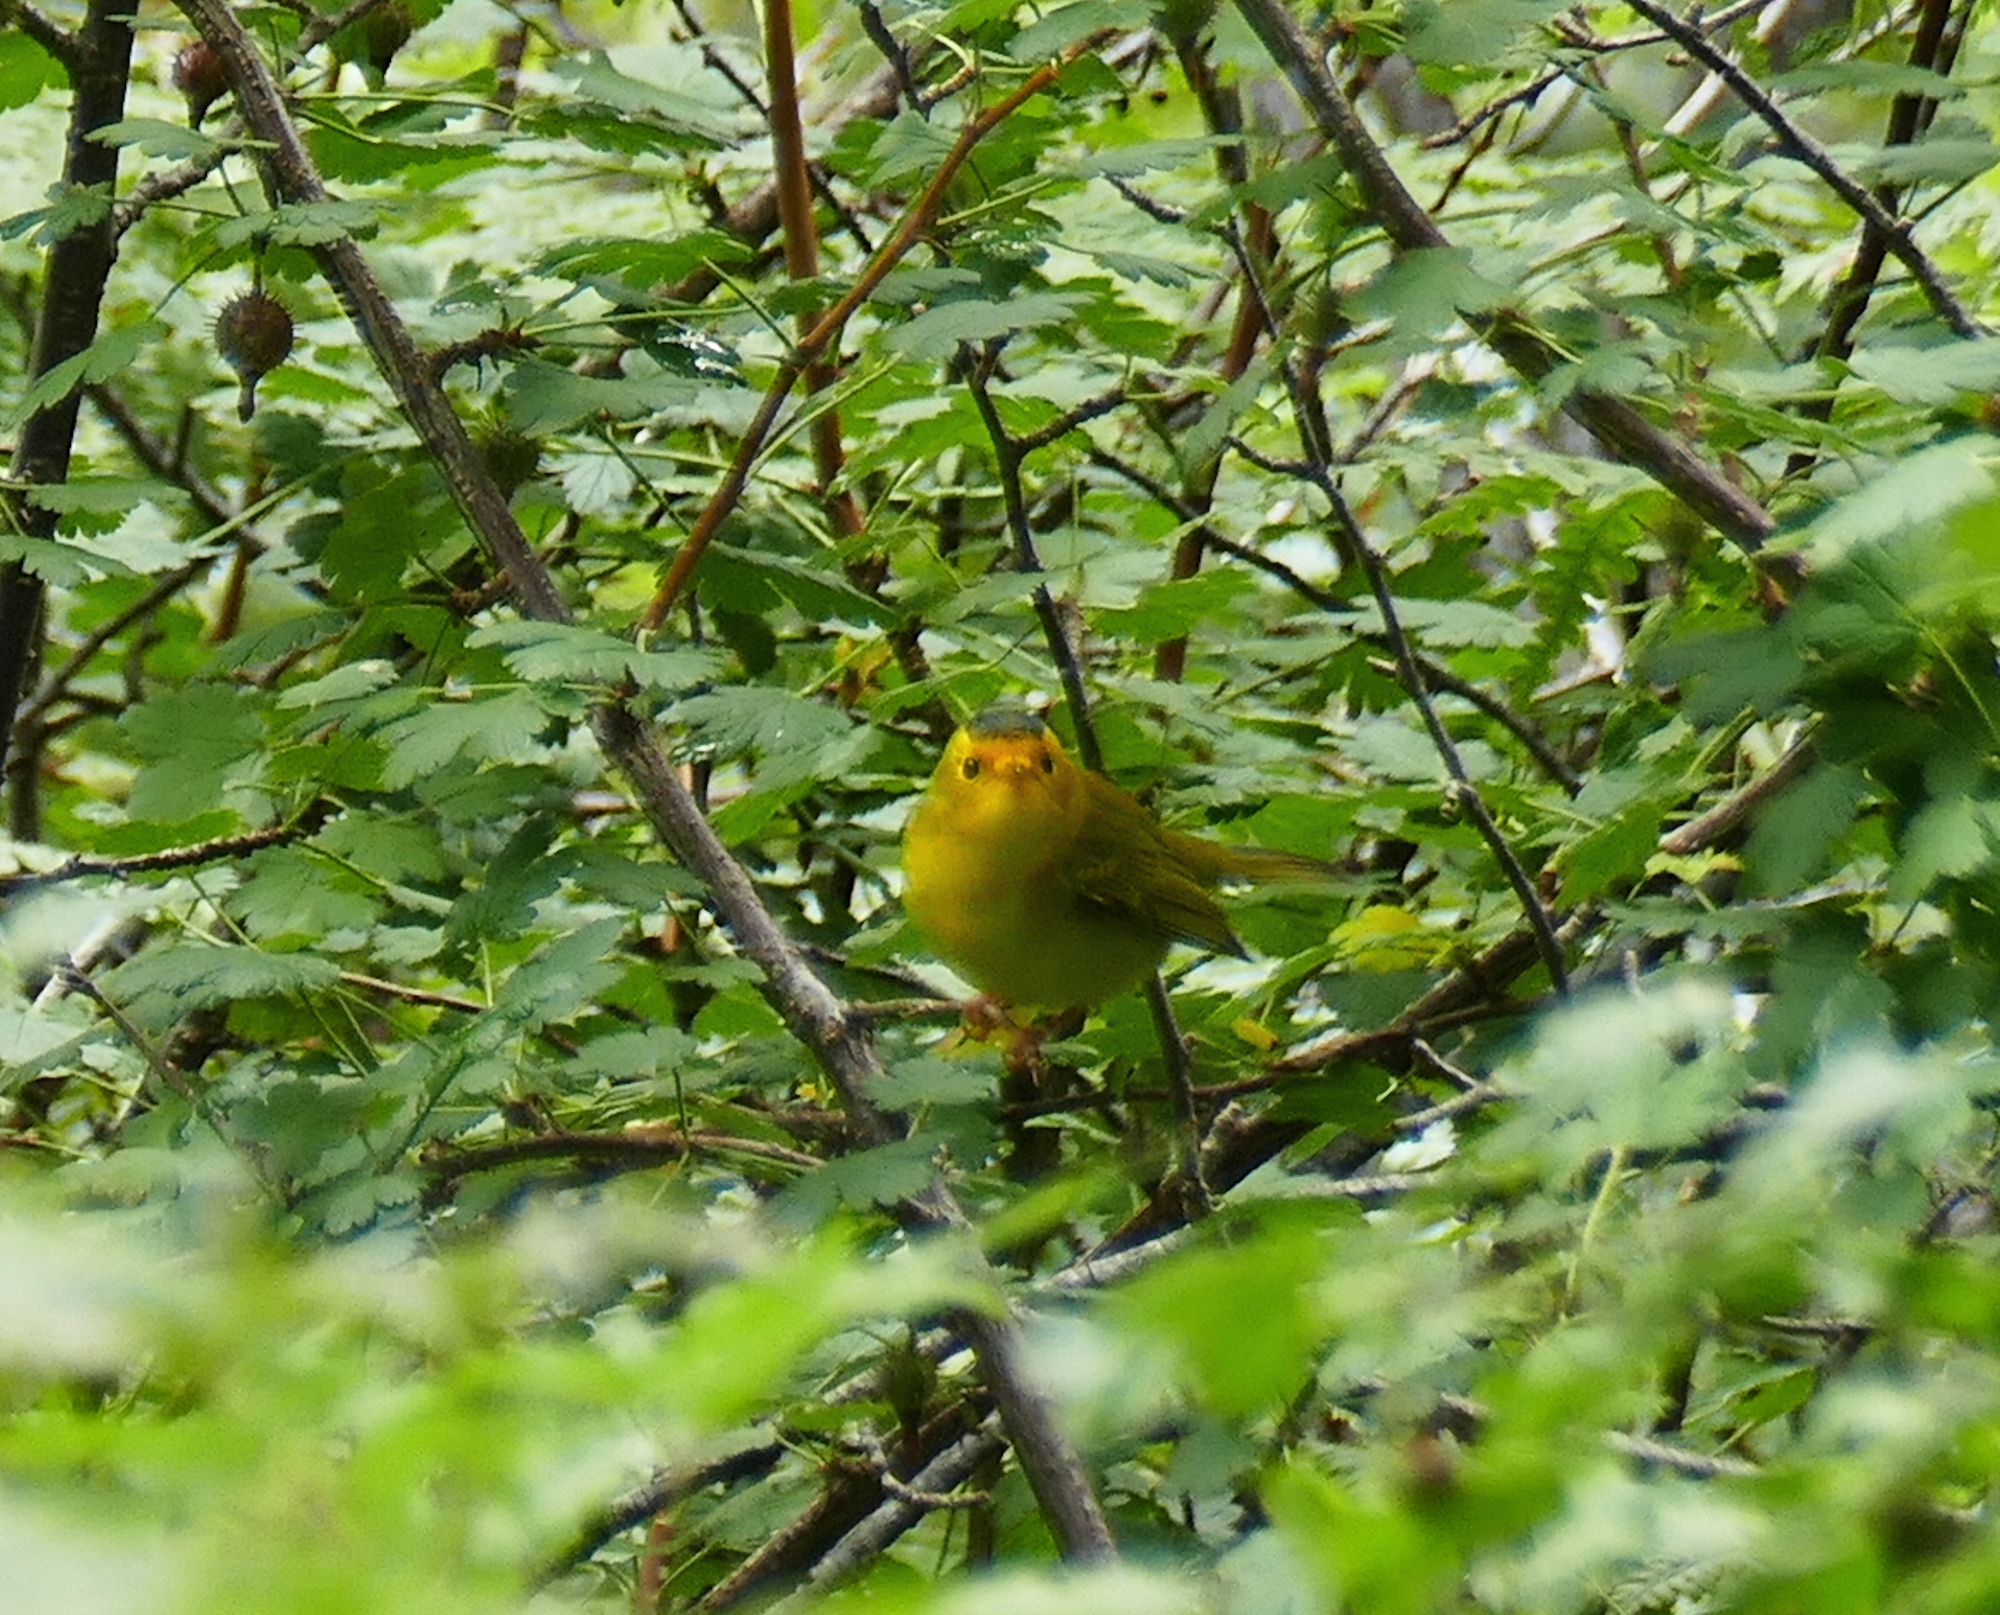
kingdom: Animalia
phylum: Chordata
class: Aves
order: Passeriformes
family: Parulidae
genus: Cardellina
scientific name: Cardellina pusilla
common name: Wilson's warbler
